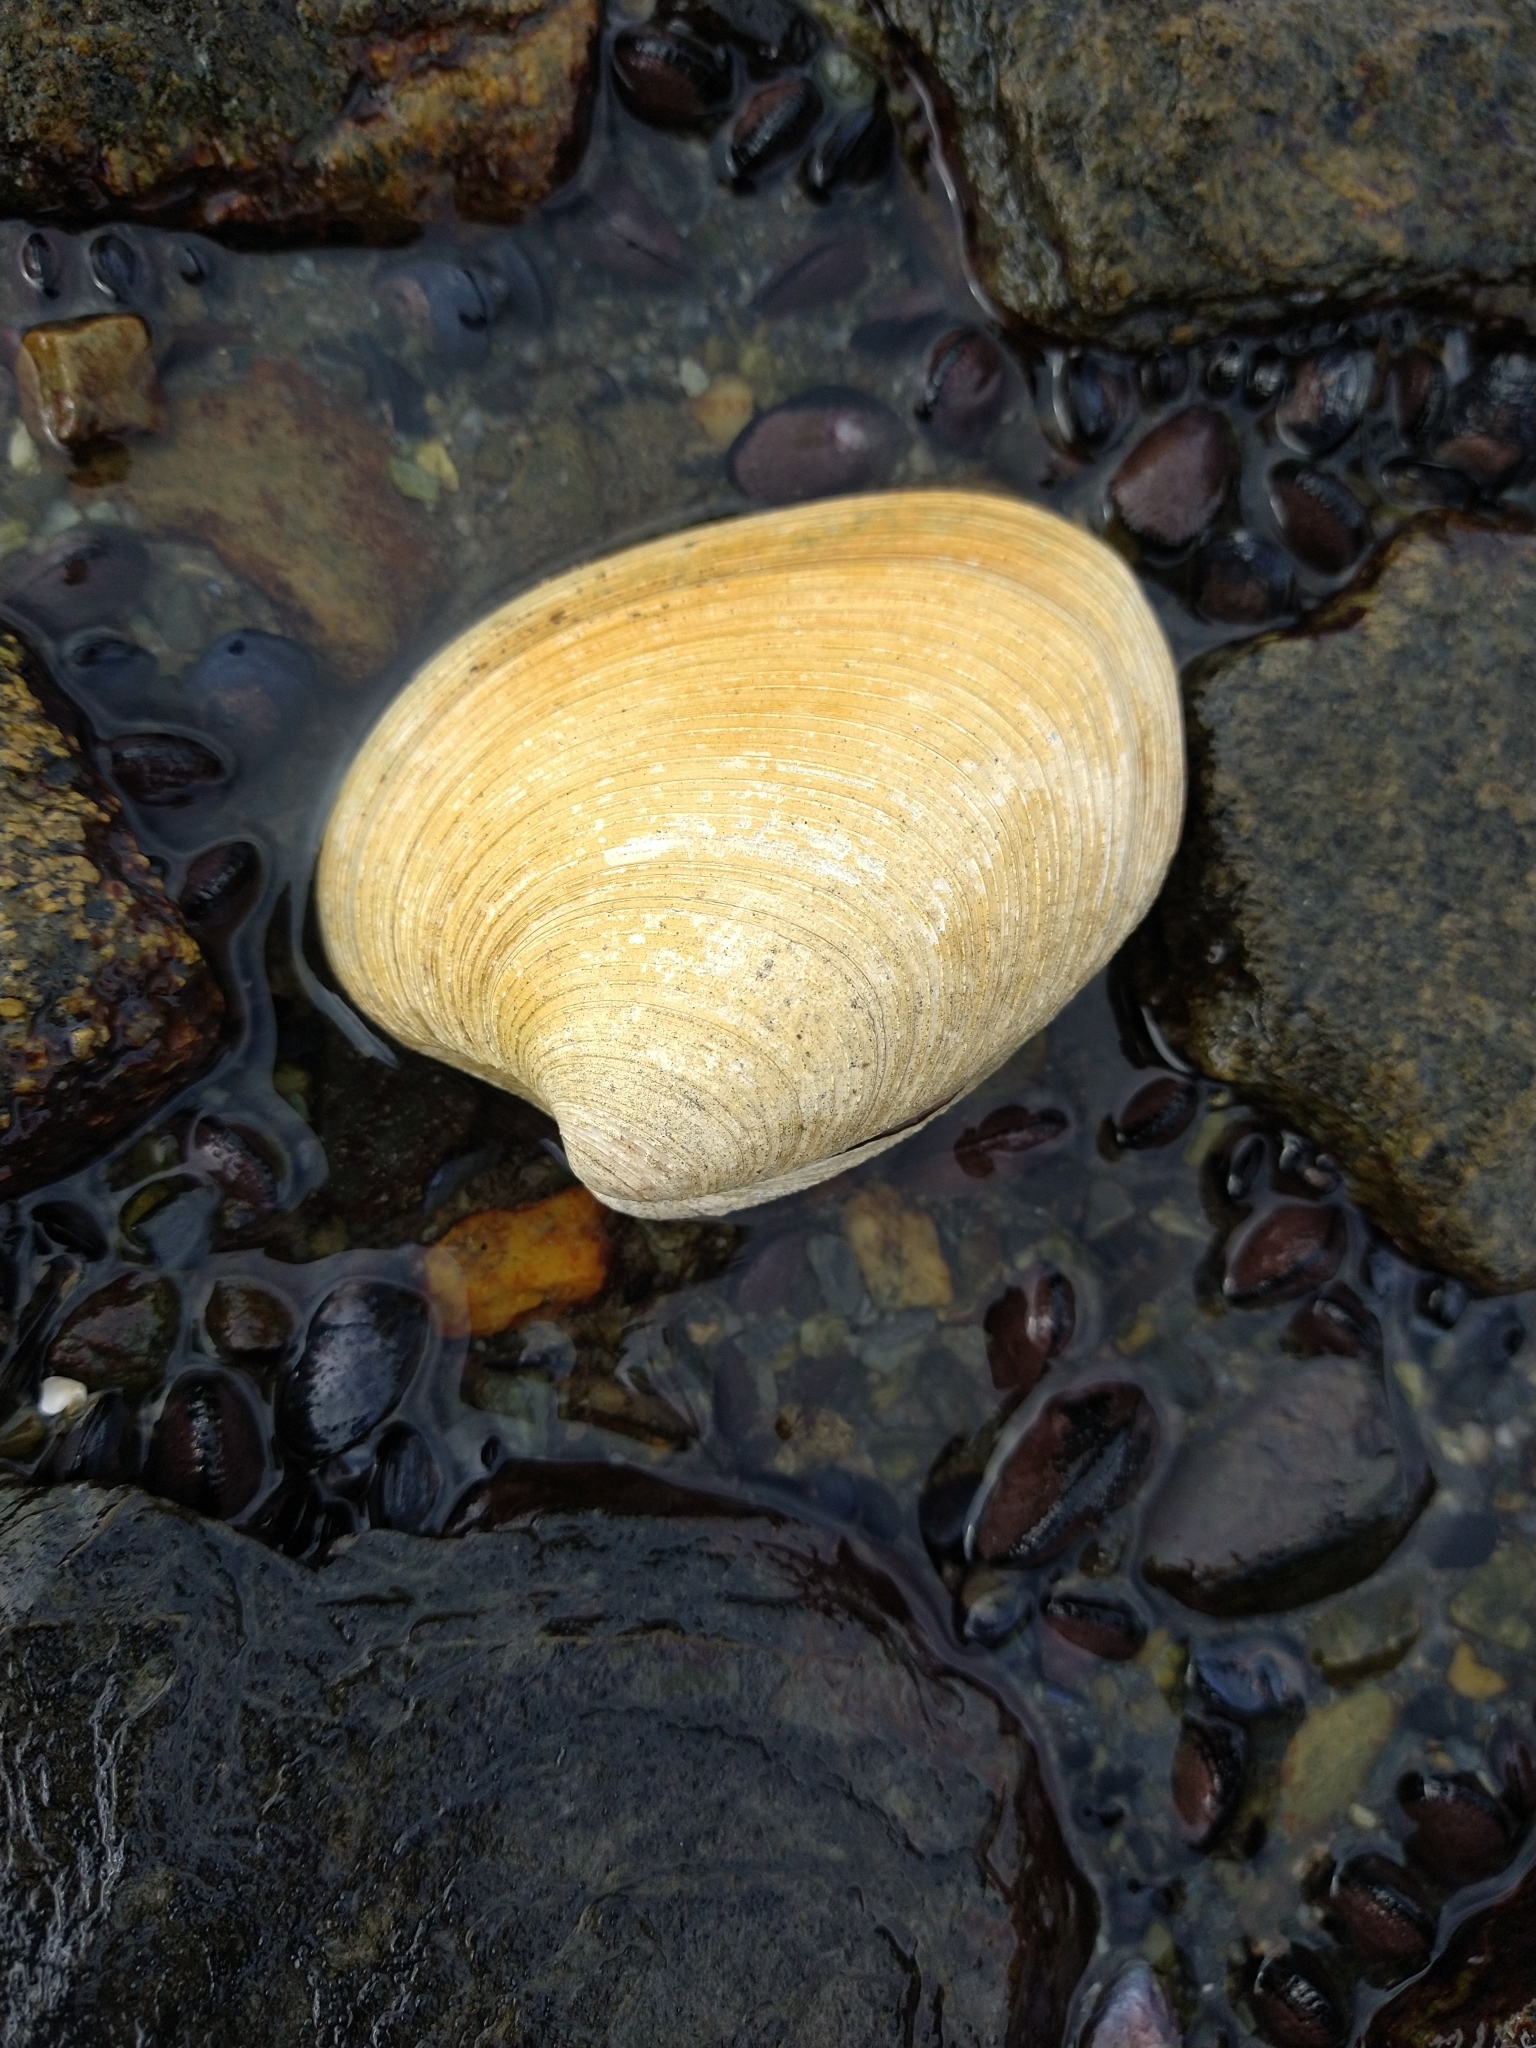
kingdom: Animalia
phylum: Mollusca
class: Bivalvia
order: Venerida
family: Veneridae
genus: Retrotapes
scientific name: Retrotapes exalbidus
